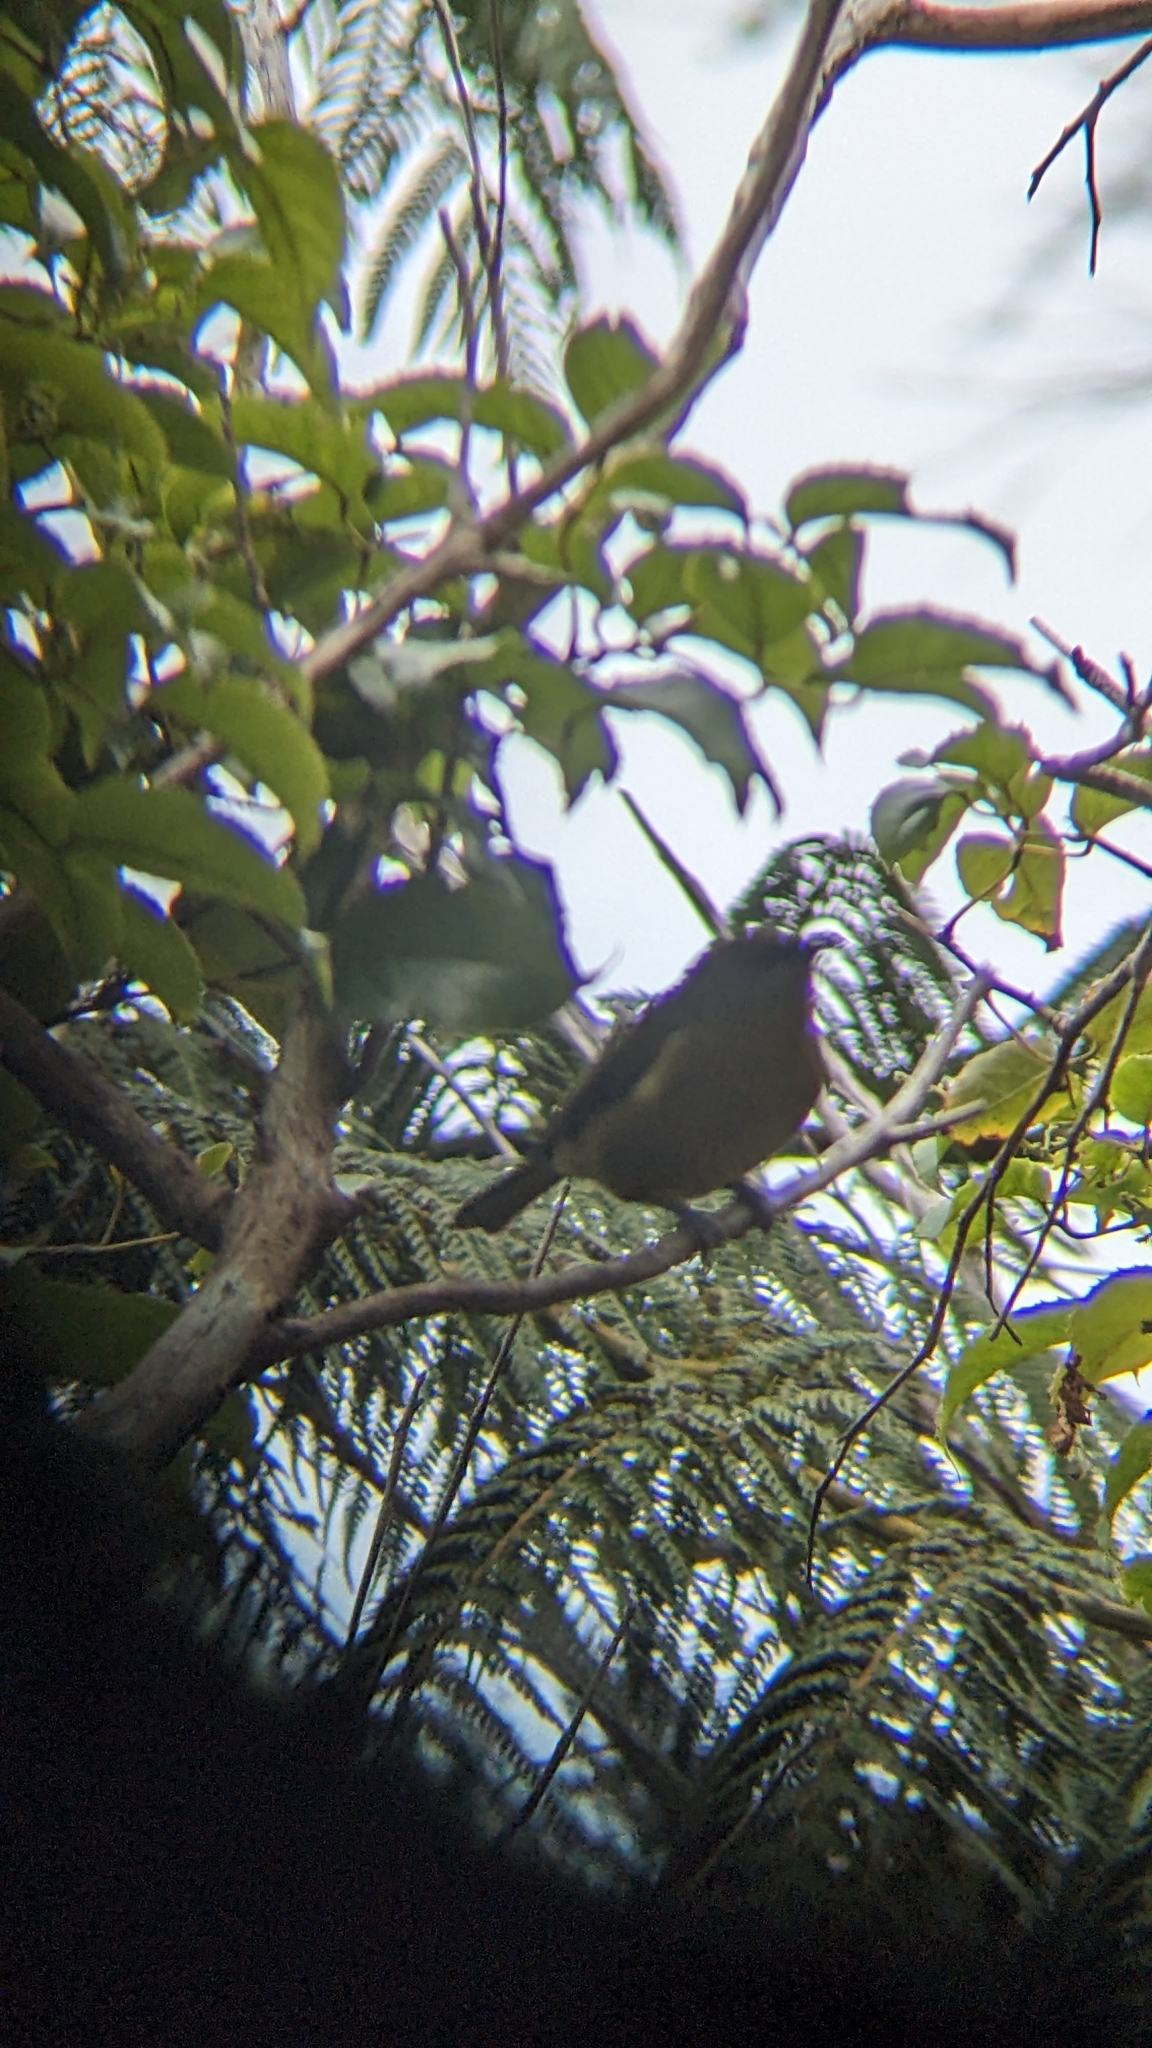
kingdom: Animalia
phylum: Chordata
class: Aves
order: Passeriformes
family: Meliphagidae
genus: Anthornis
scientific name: Anthornis melanura
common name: New zealand bellbird
